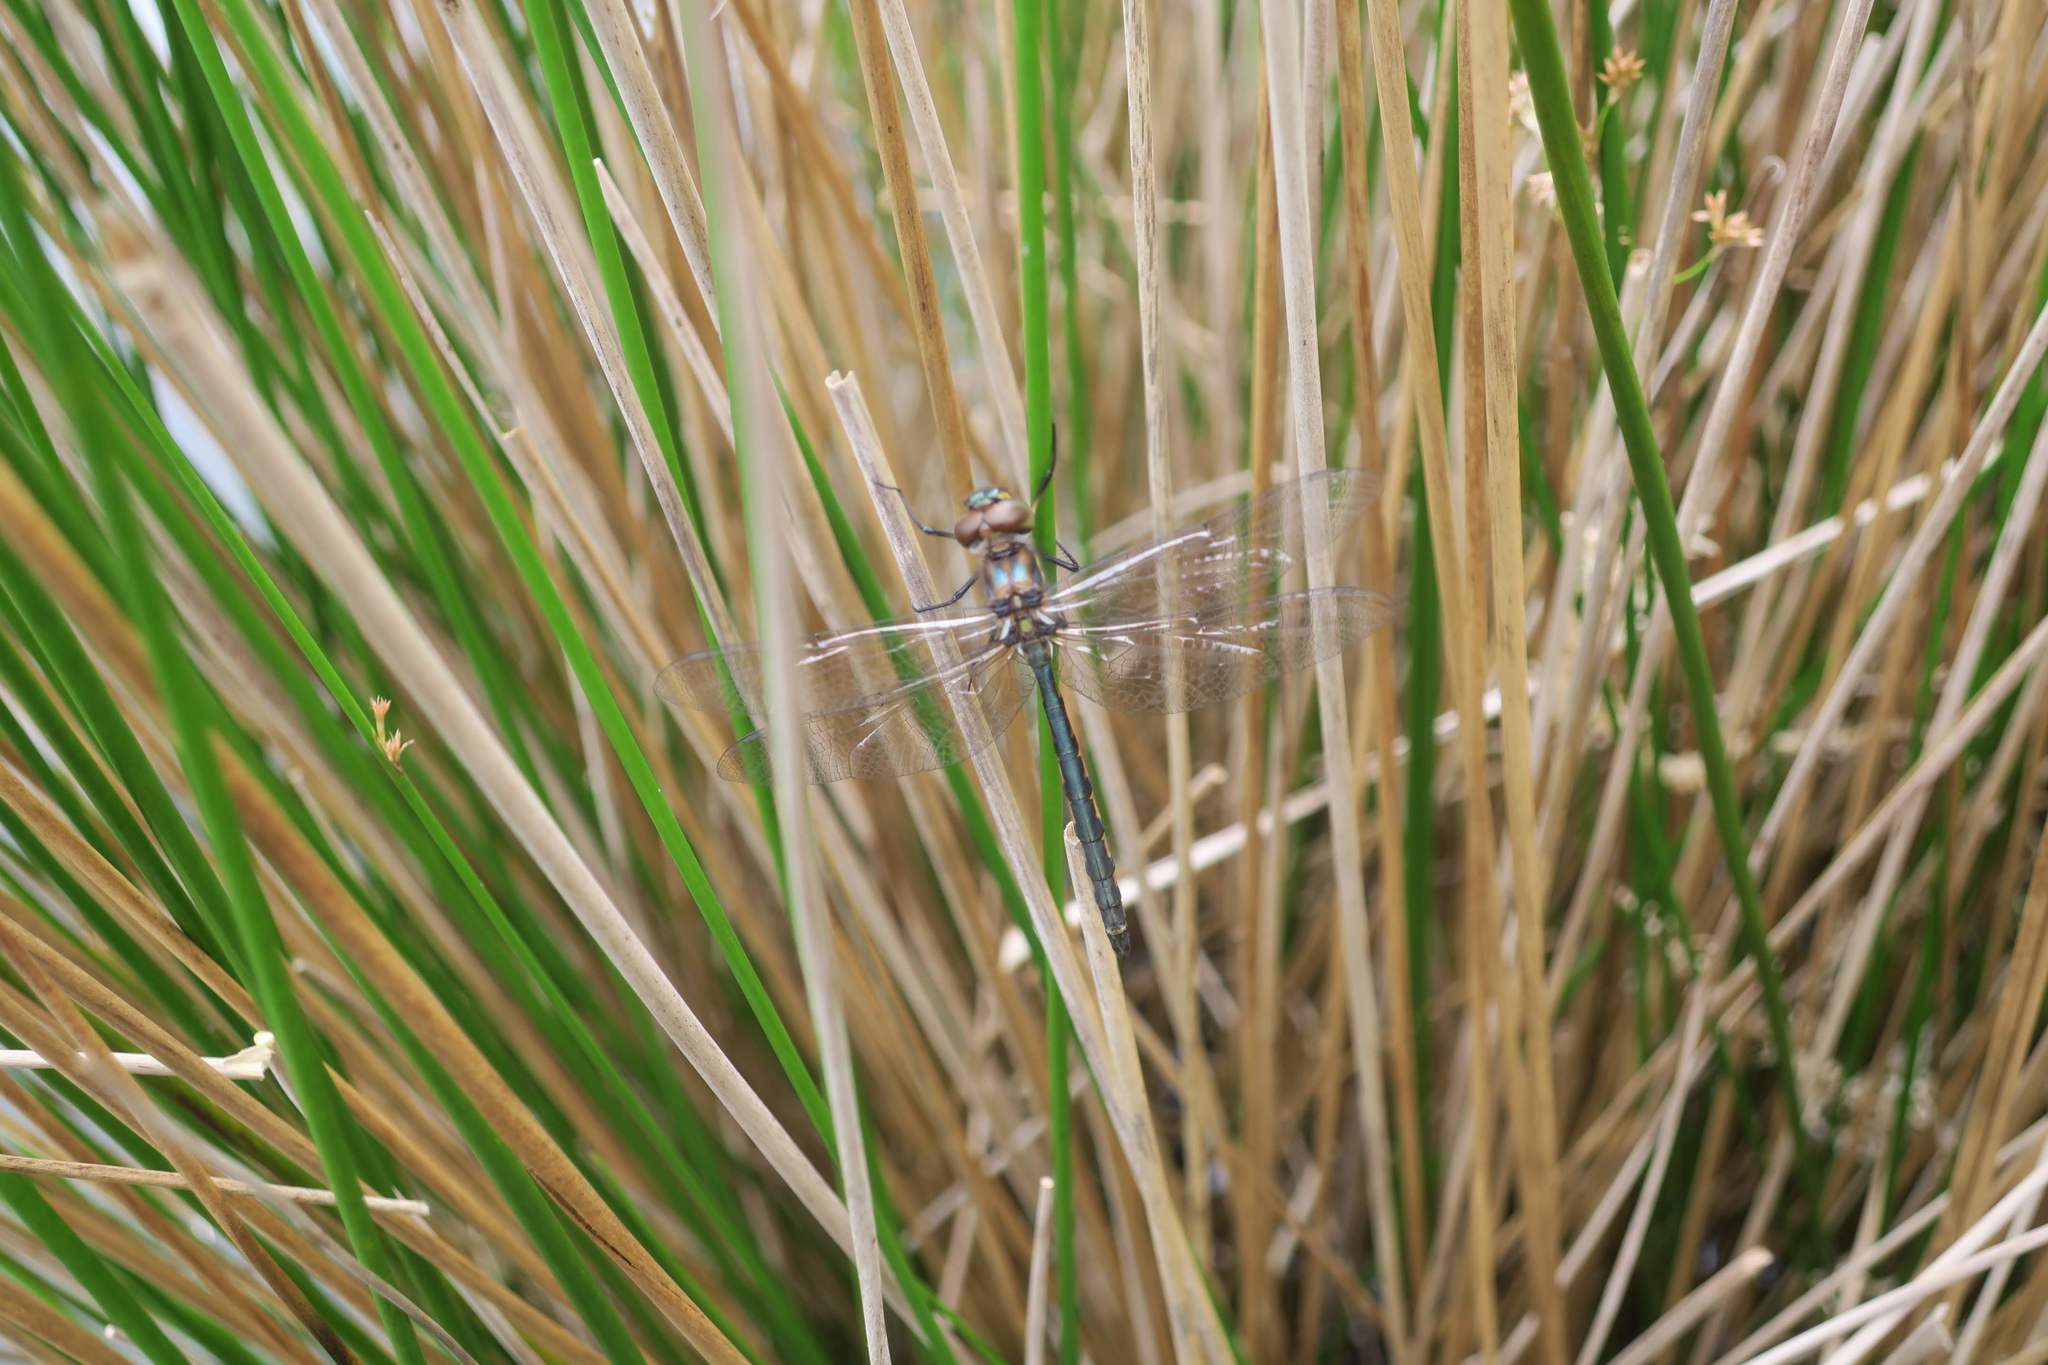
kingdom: Animalia
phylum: Arthropoda
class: Insecta
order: Odonata
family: Corduliidae
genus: Hemicordulia
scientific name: Hemicordulia australiae
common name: Sentry dragonfly
